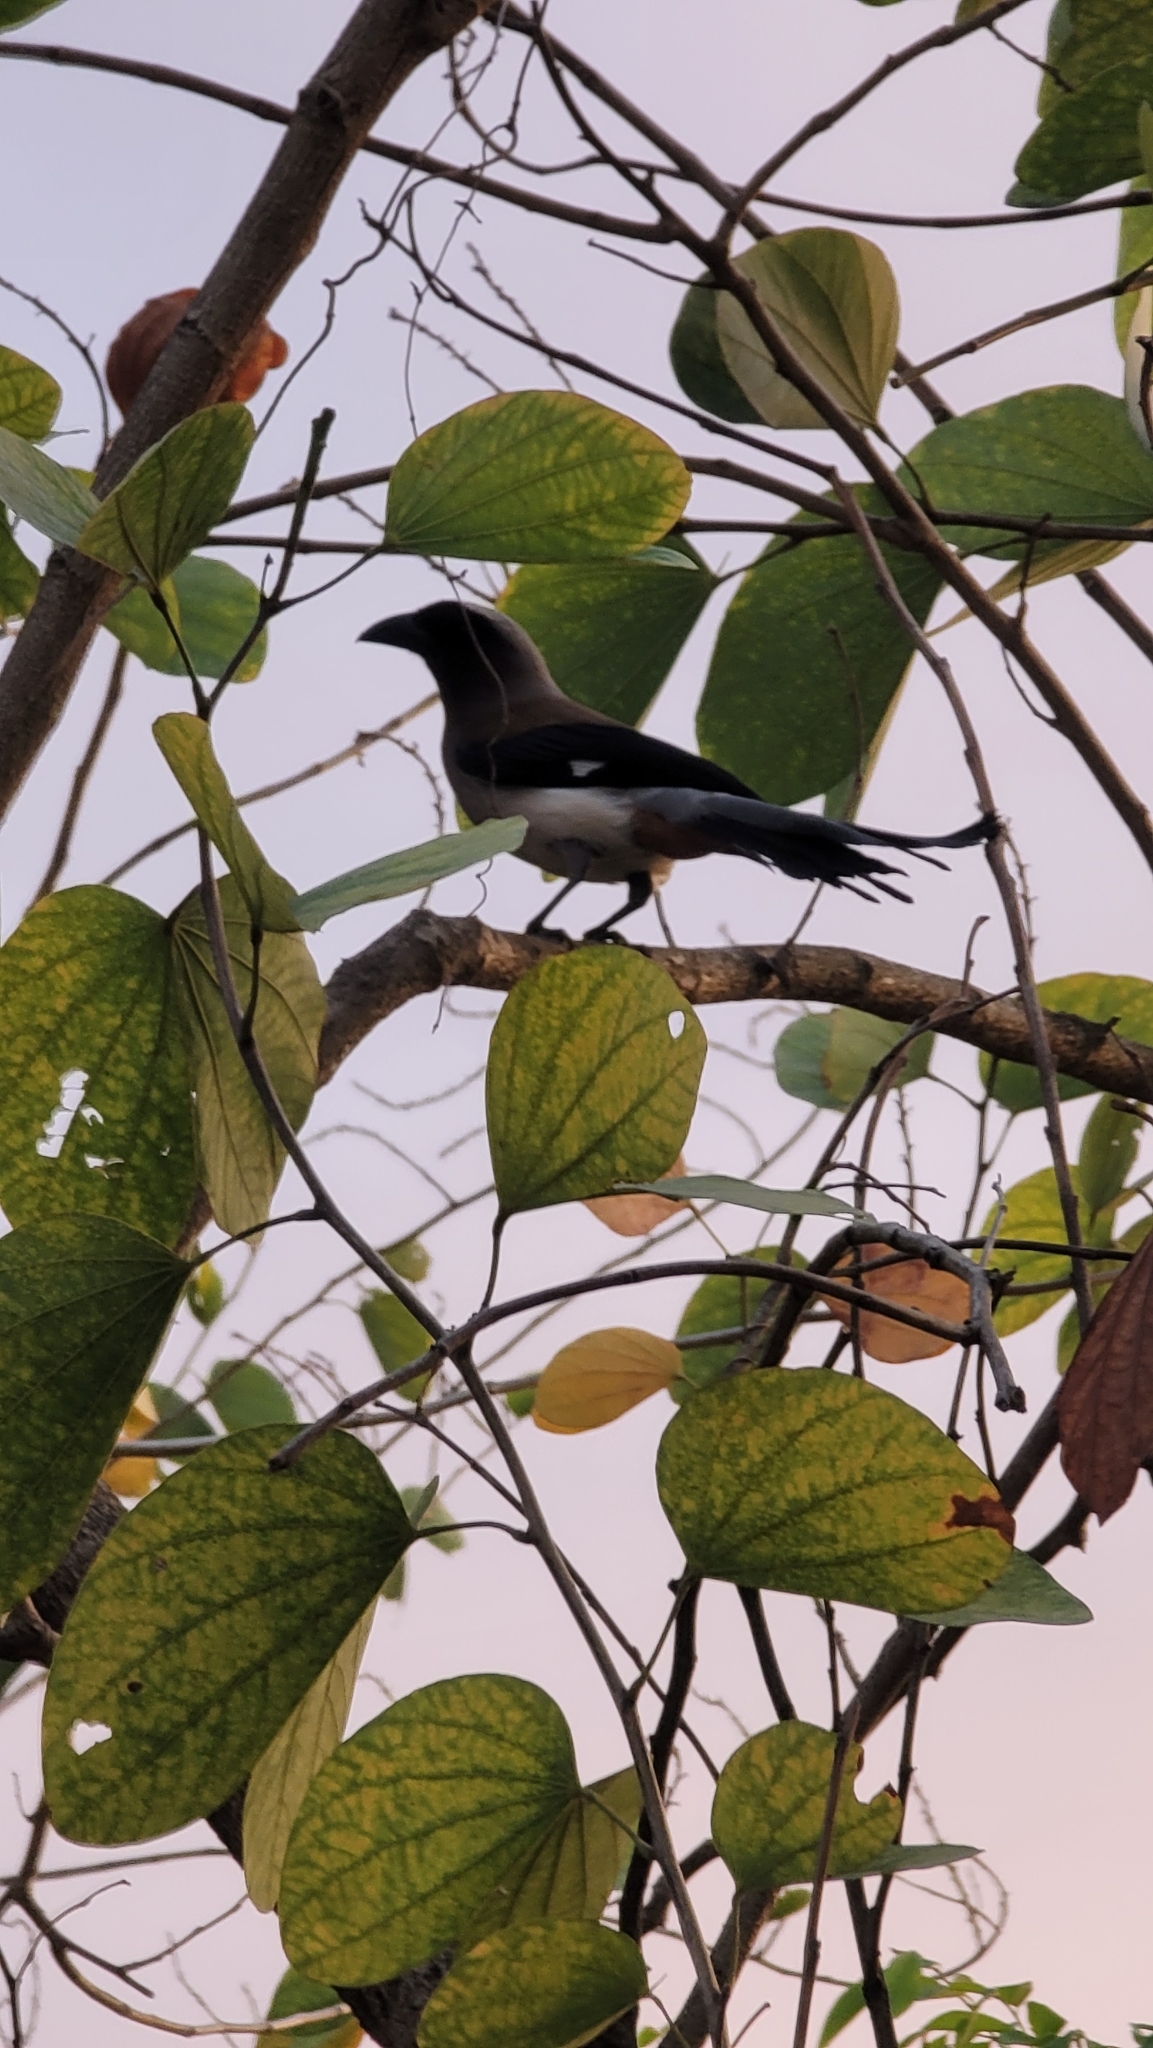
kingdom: Animalia
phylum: Chordata
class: Aves
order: Passeriformes
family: Corvidae
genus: Dendrocitta
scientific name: Dendrocitta formosae
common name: Grey treepie
